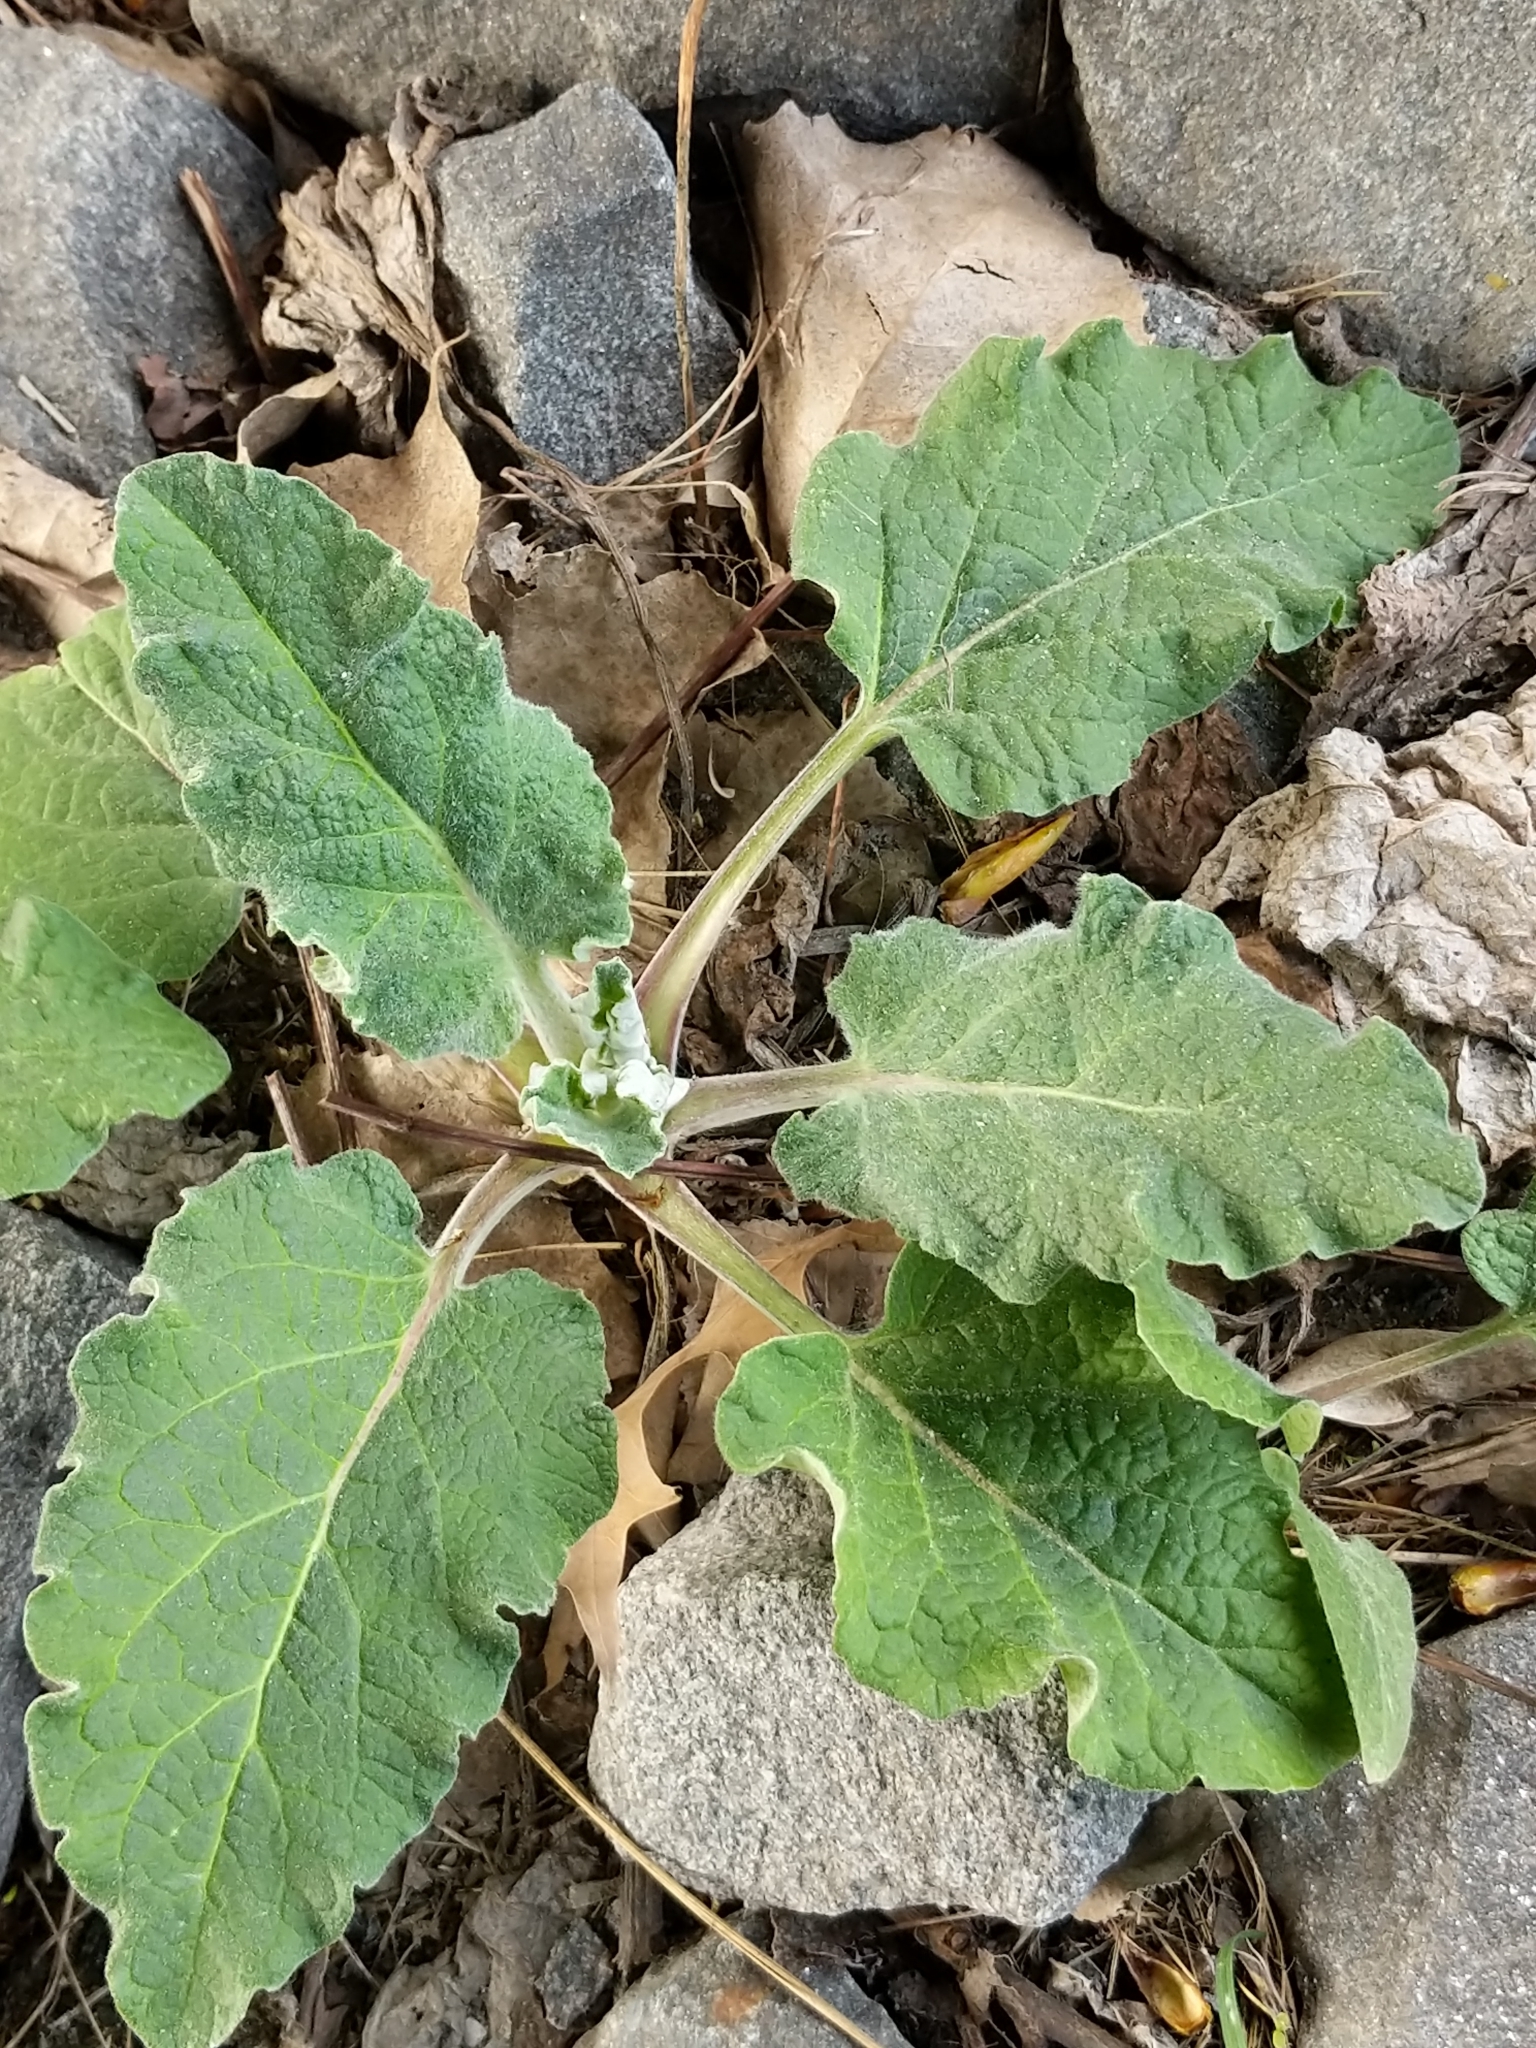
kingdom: Plantae
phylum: Tracheophyta
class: Magnoliopsida
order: Asterales
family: Asteraceae
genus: Arctium
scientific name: Arctium
